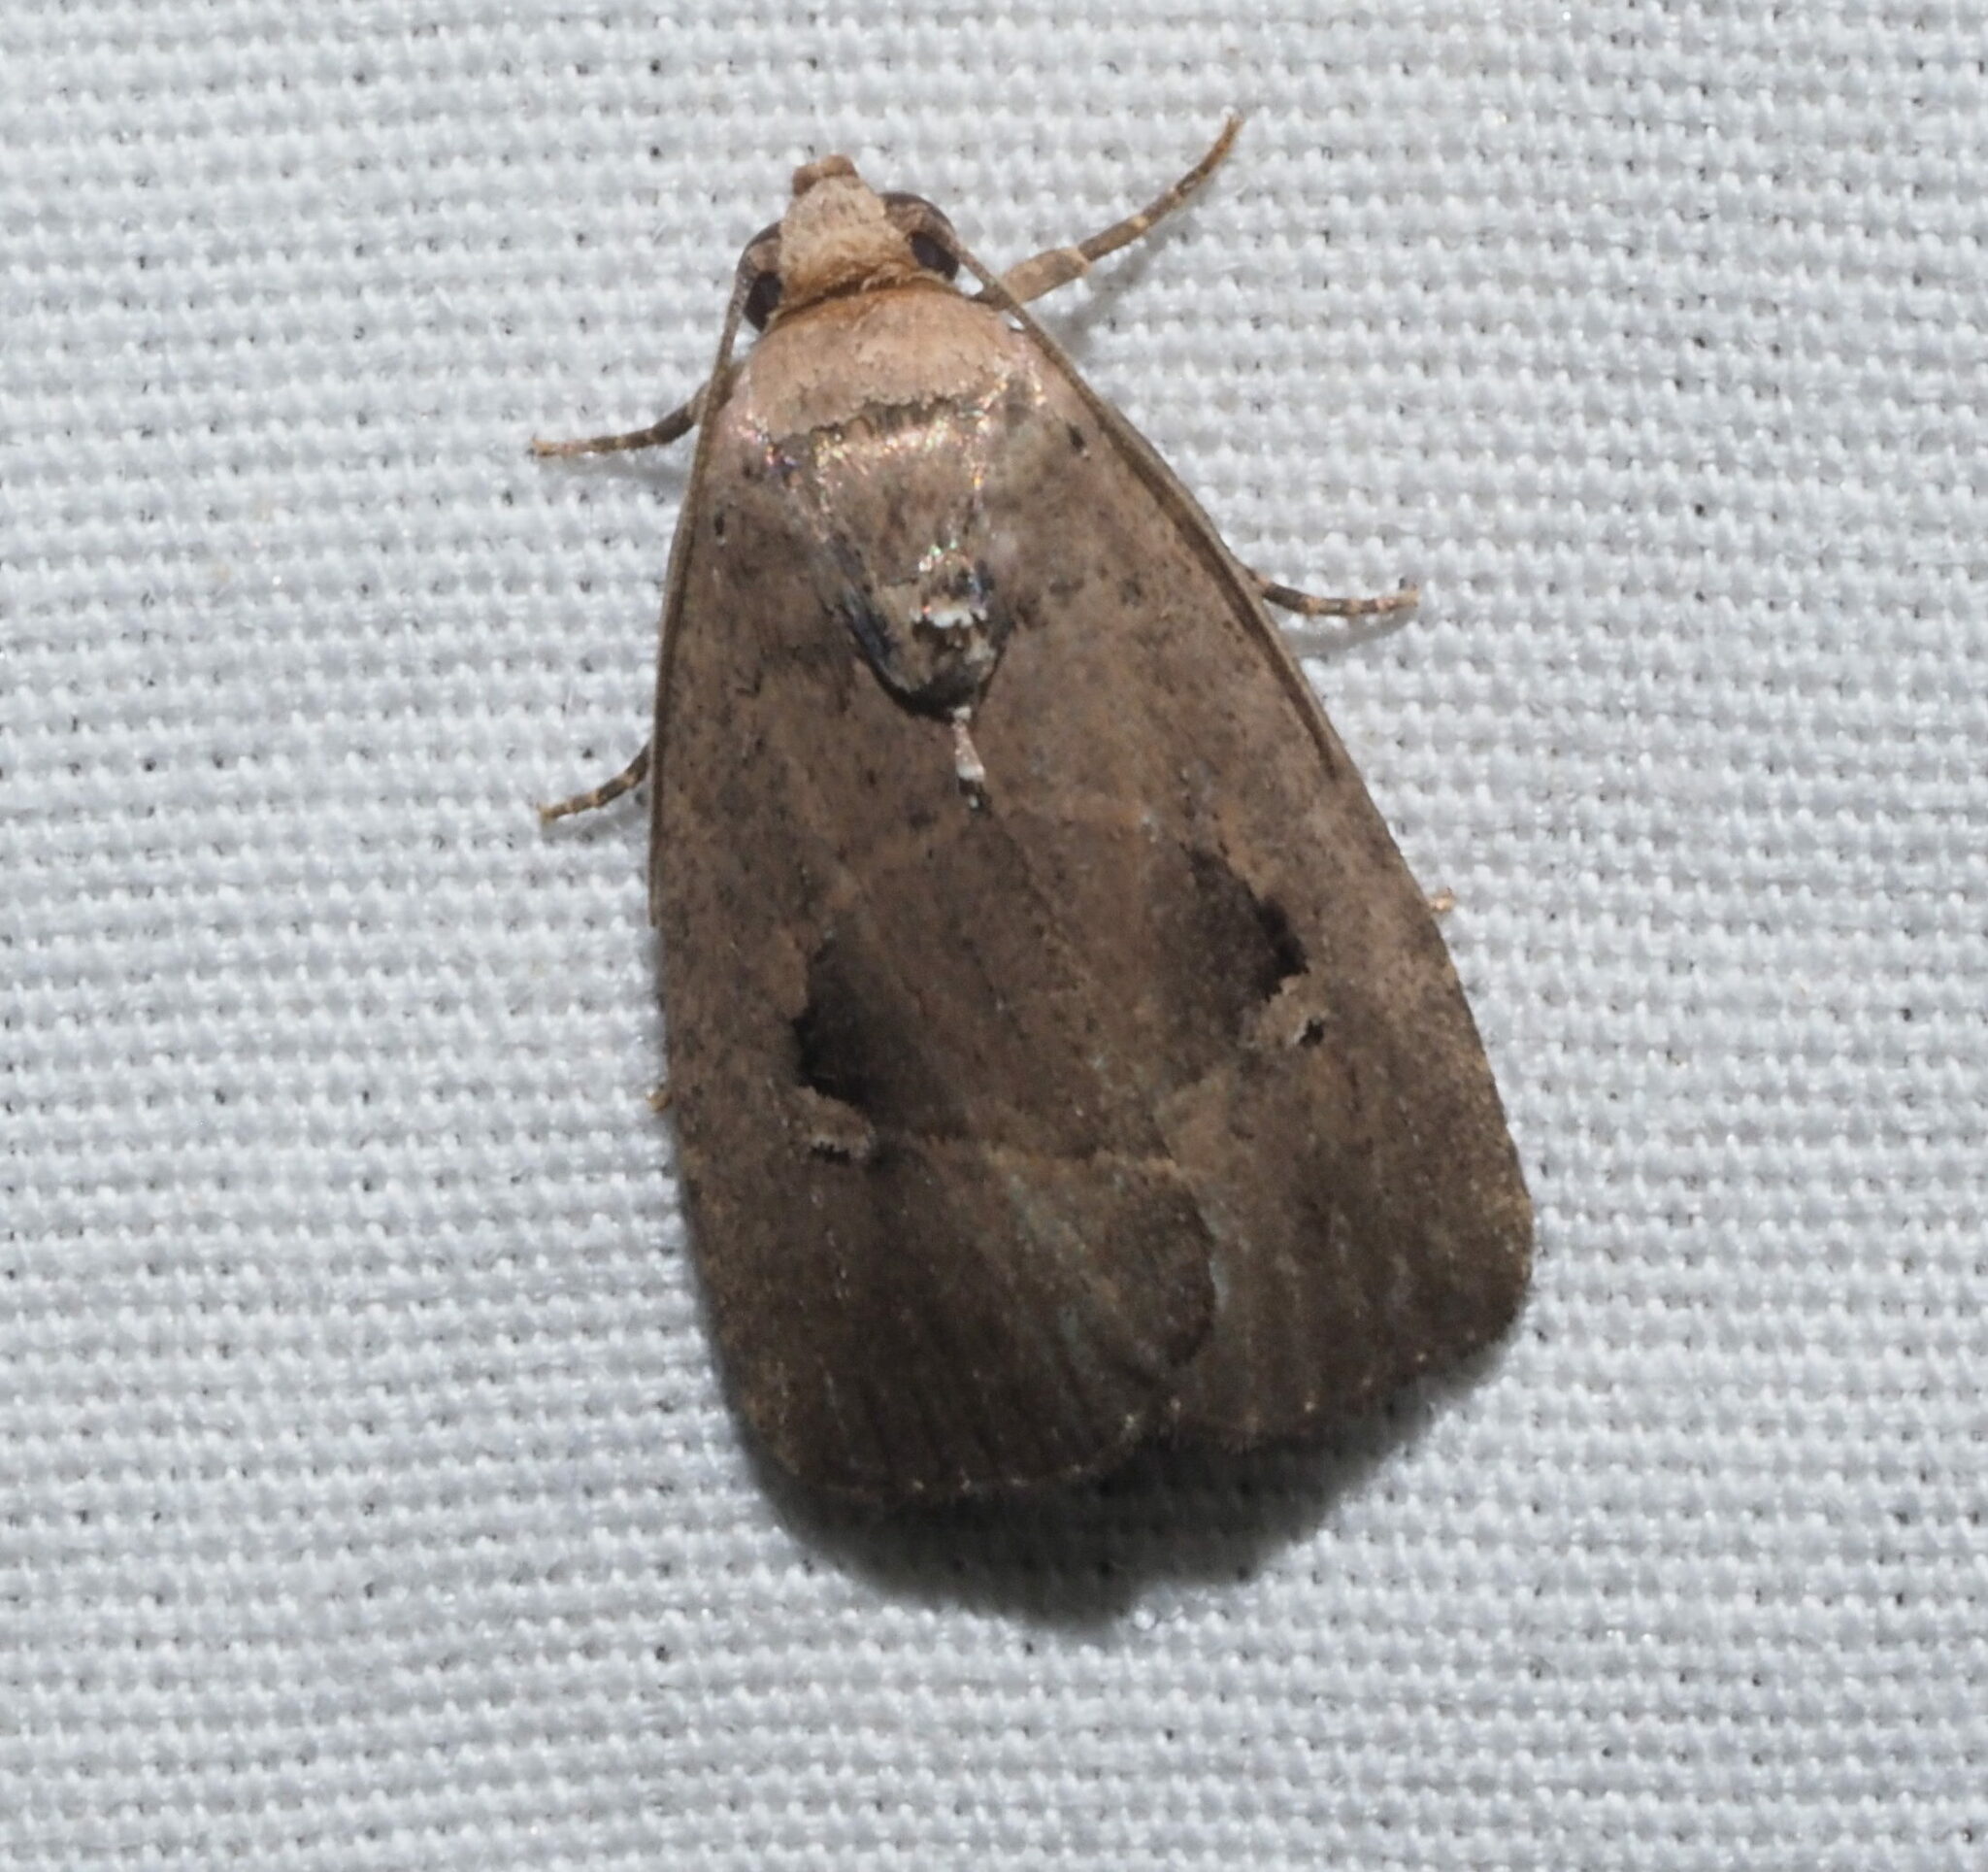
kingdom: Animalia
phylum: Arthropoda
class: Insecta
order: Lepidoptera
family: Noctuidae
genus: Elaphria
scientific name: Elaphria nucicolora
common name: Sugarcane midget moth
